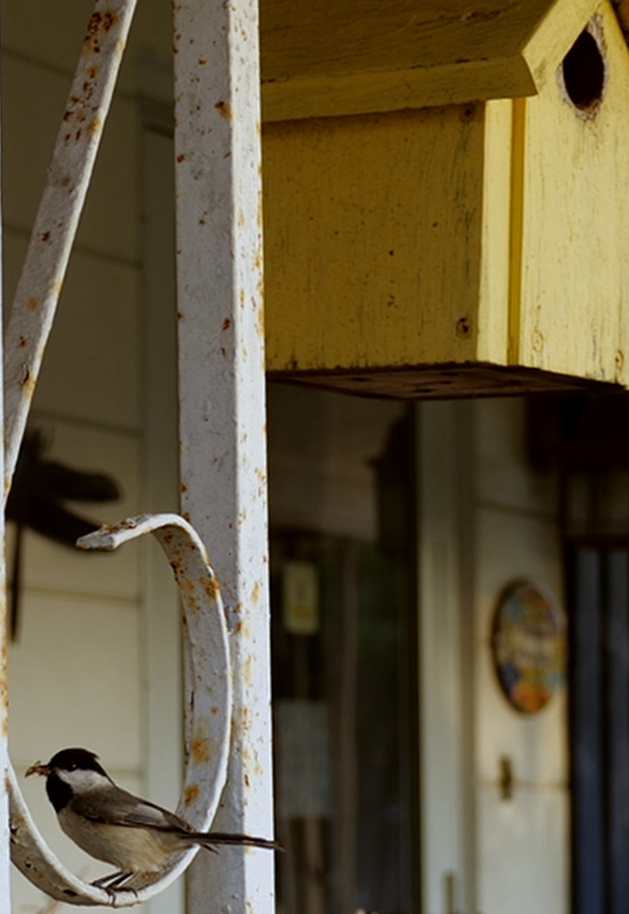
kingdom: Animalia
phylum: Chordata
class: Aves
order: Passeriformes
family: Paridae
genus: Poecile
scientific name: Poecile carolinensis
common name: Carolina chickadee
